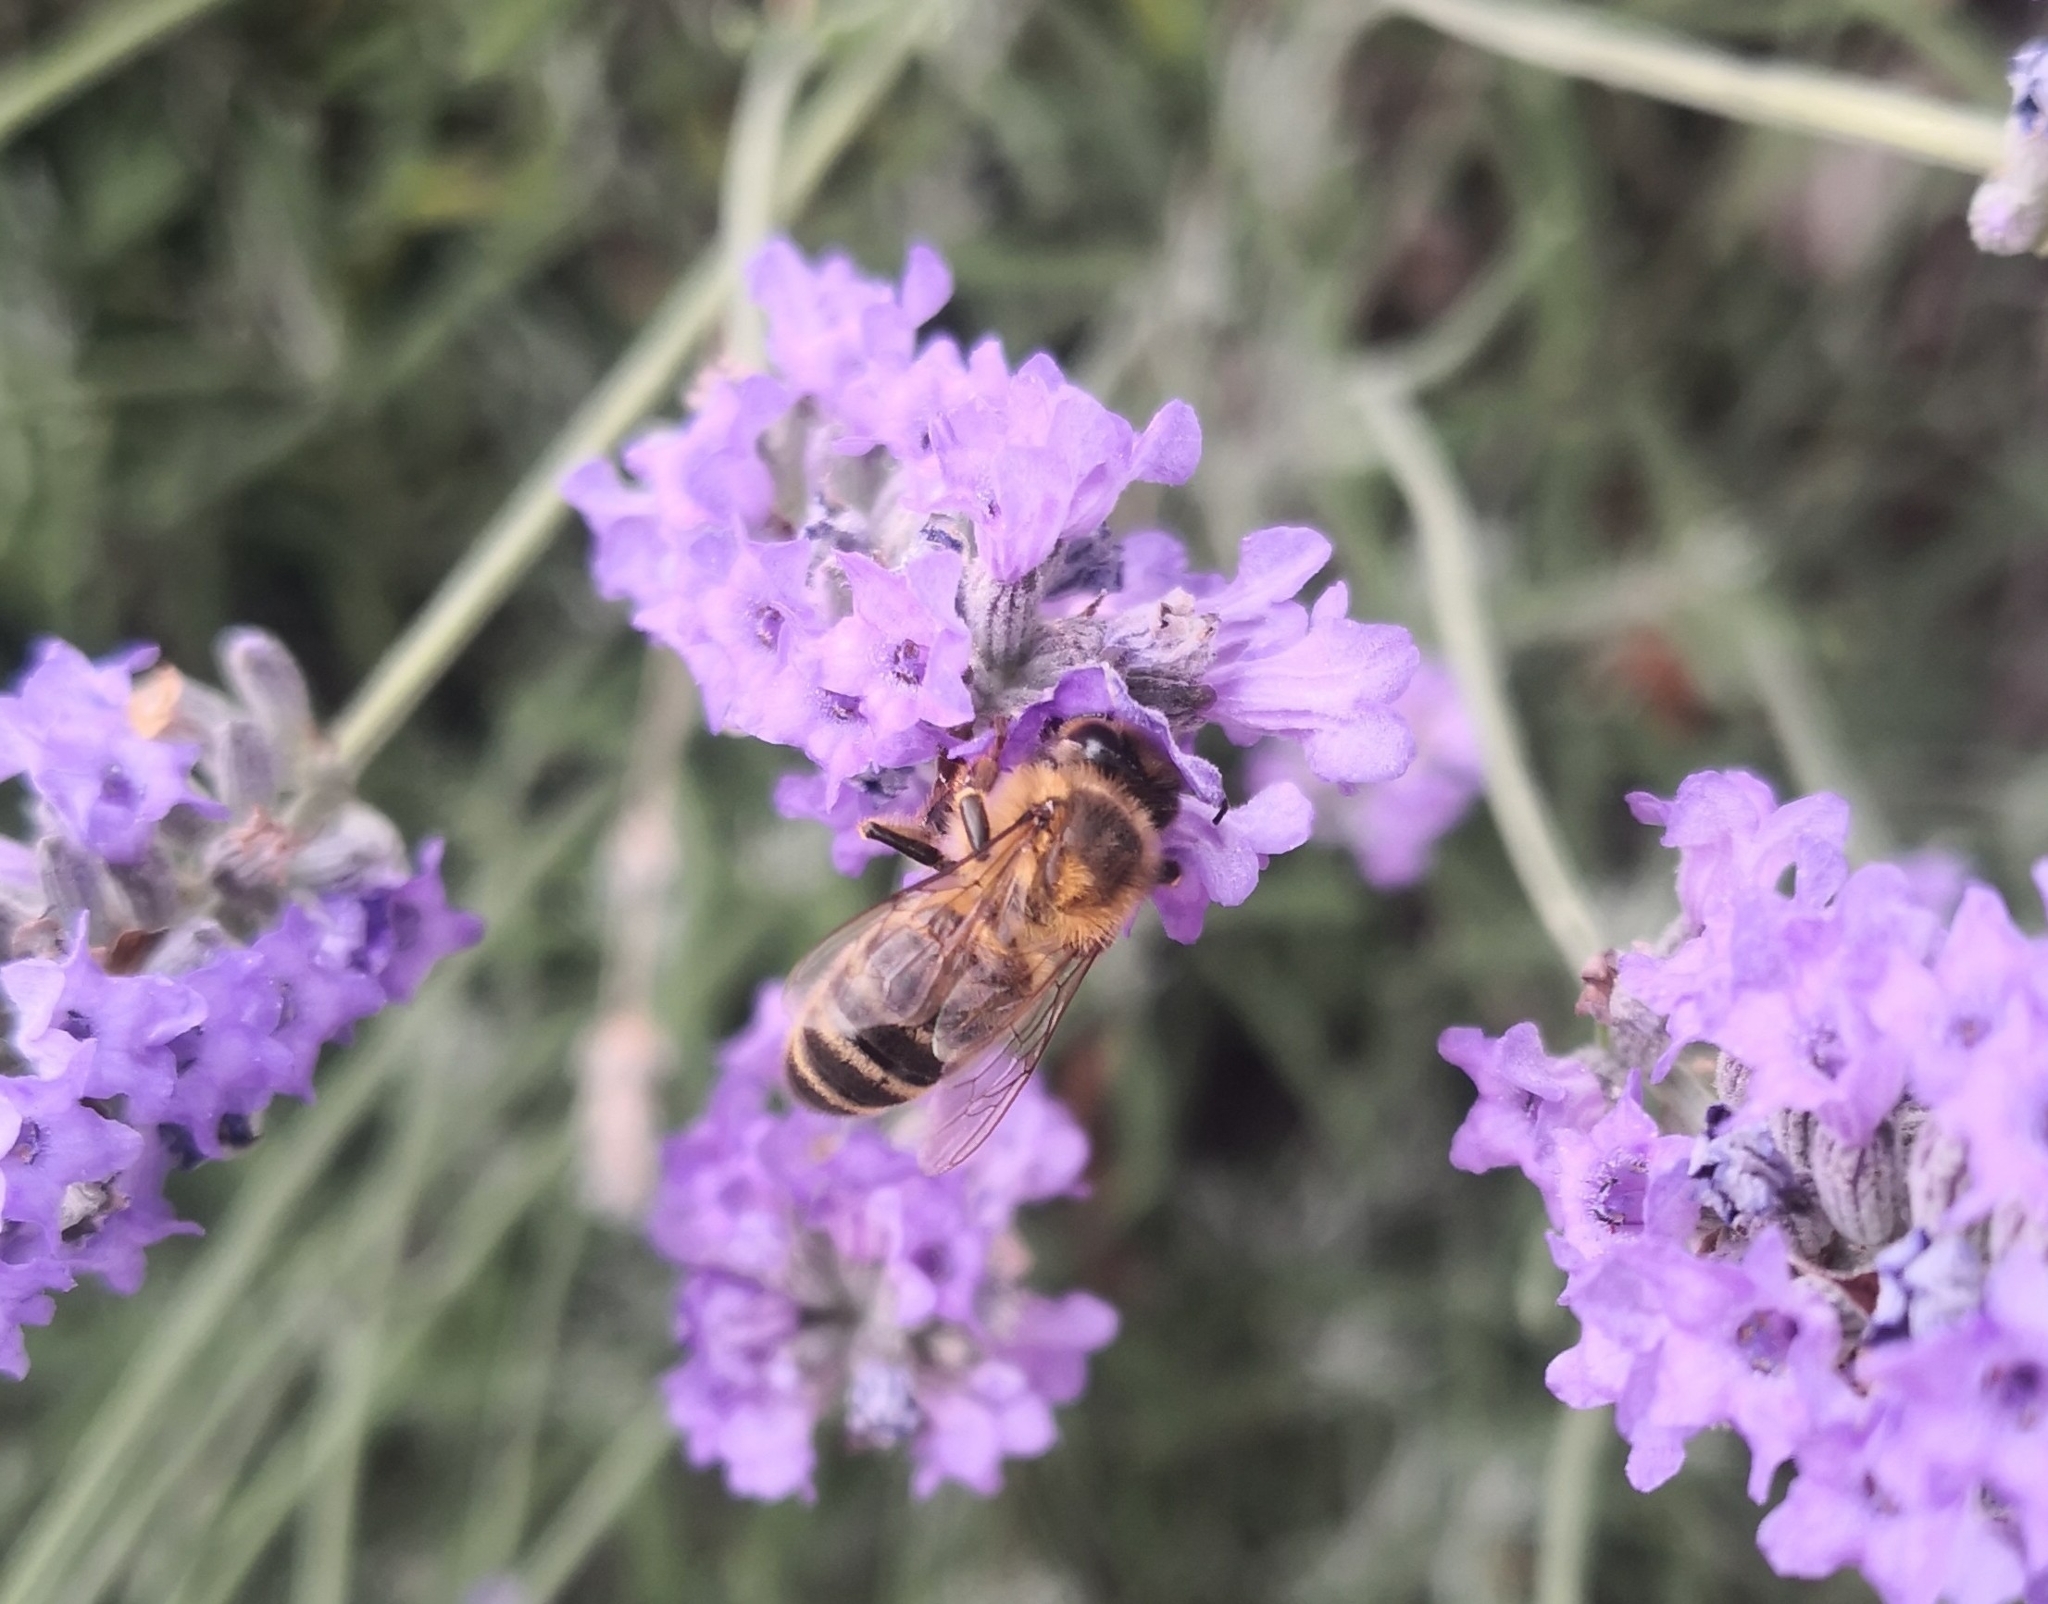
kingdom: Animalia
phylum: Arthropoda
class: Insecta
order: Hymenoptera
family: Apidae
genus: Apis
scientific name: Apis mellifera
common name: Honey bee
